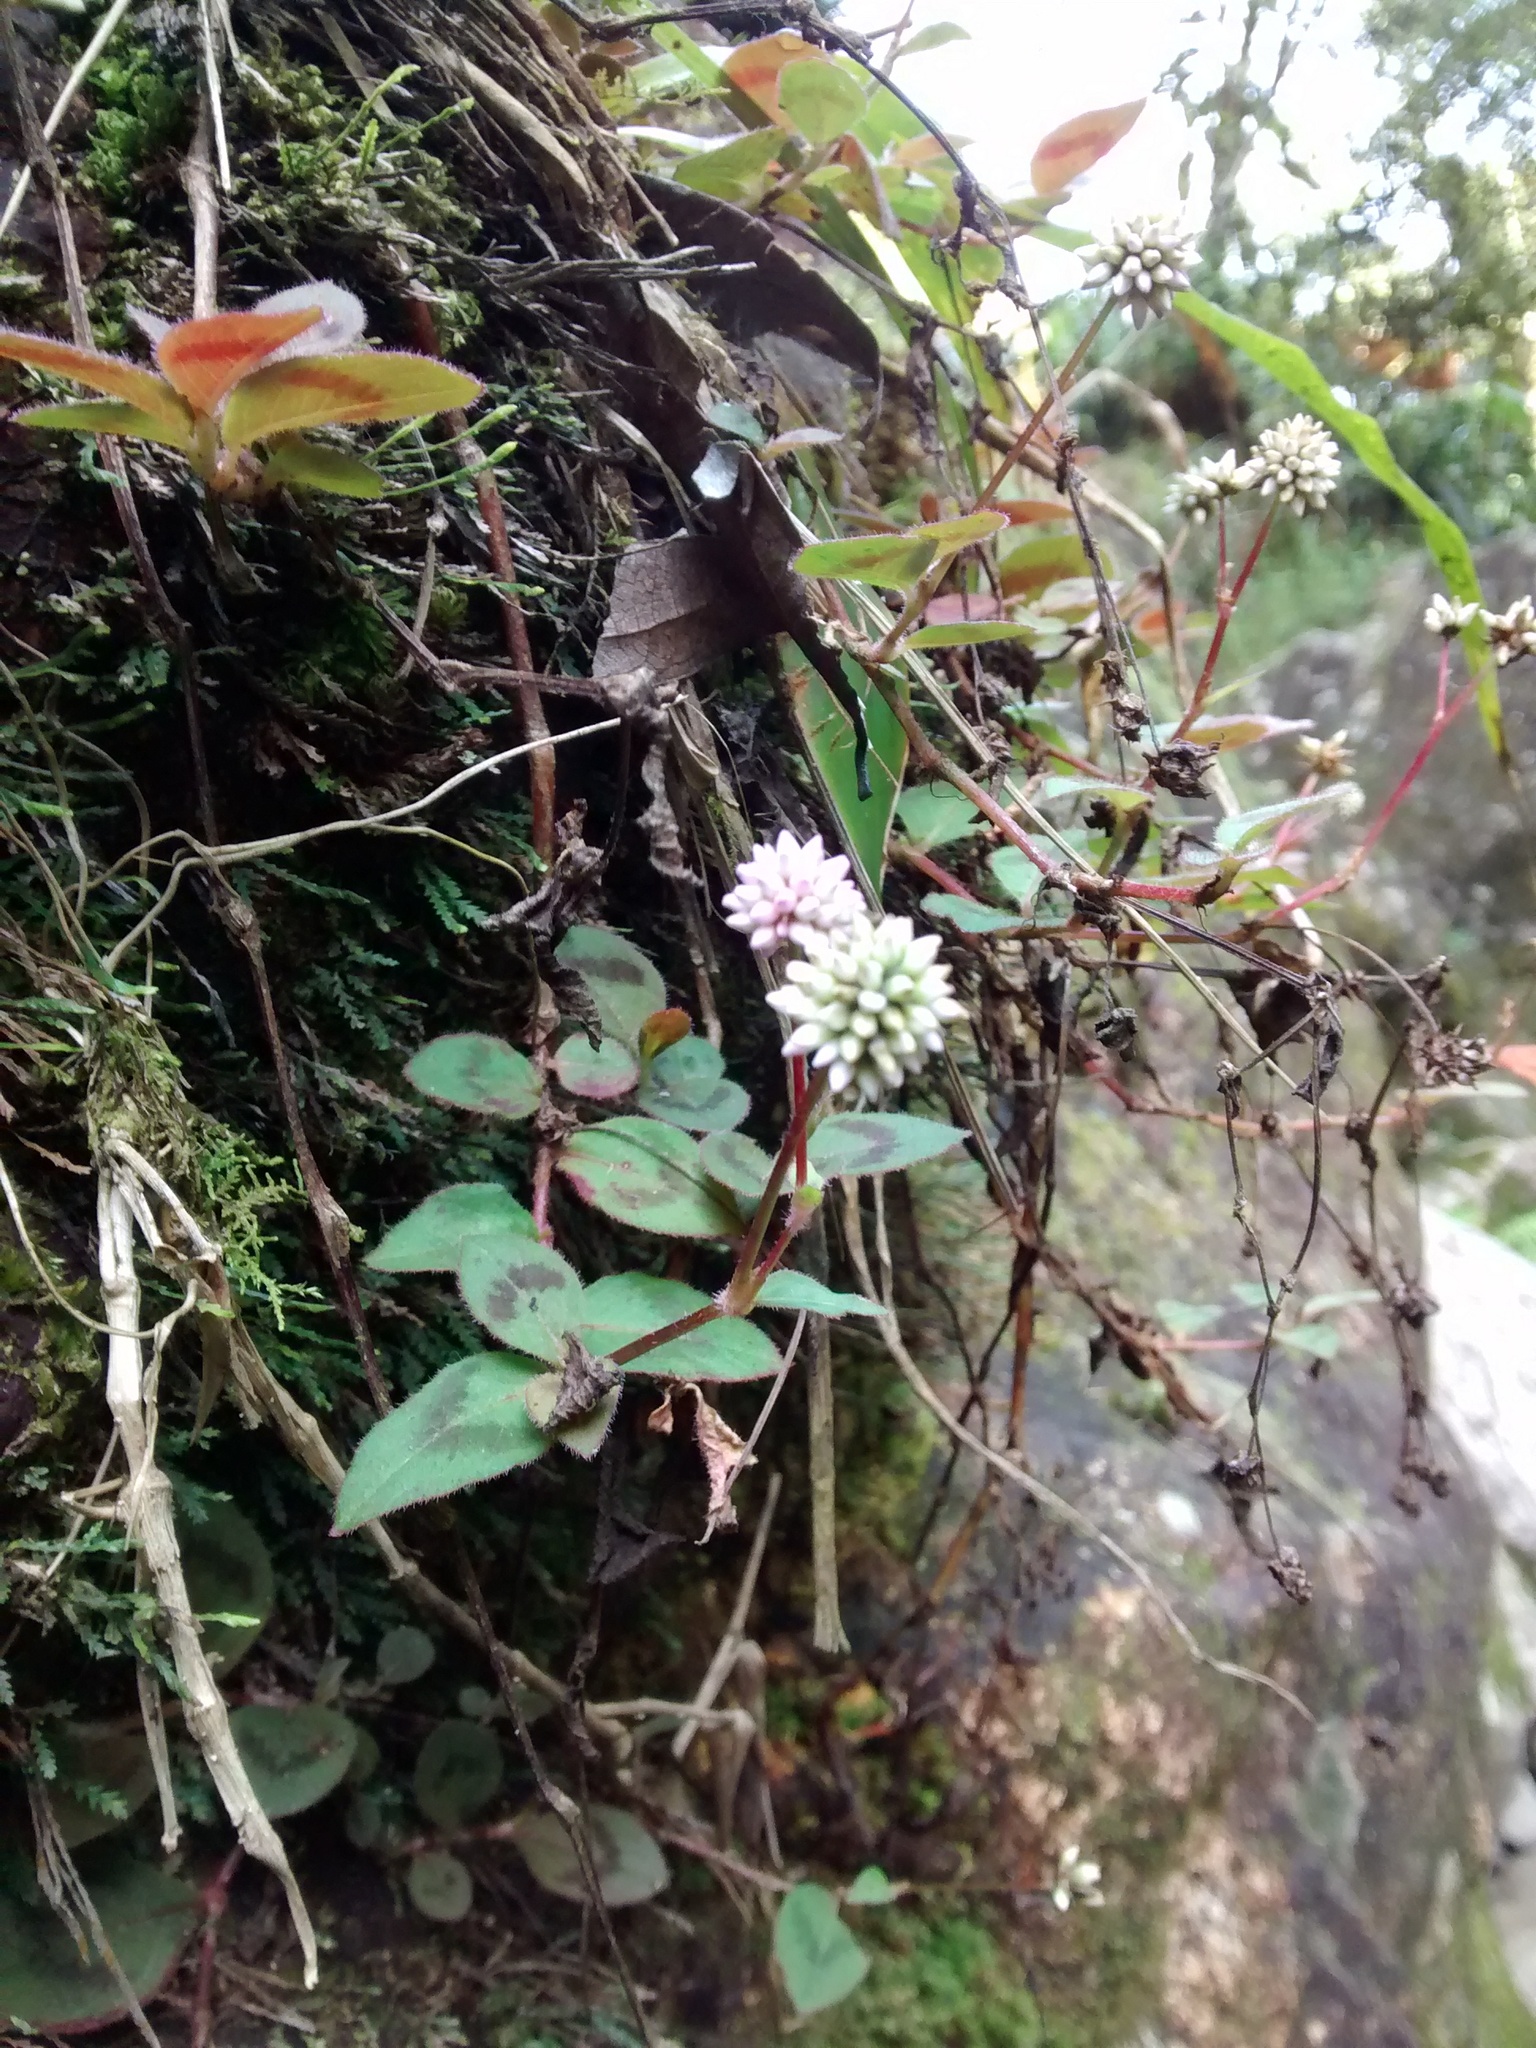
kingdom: Plantae
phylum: Tracheophyta
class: Magnoliopsida
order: Caryophyllales
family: Polygonaceae
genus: Persicaria
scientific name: Persicaria capitata
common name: Pinkhead smartweed
